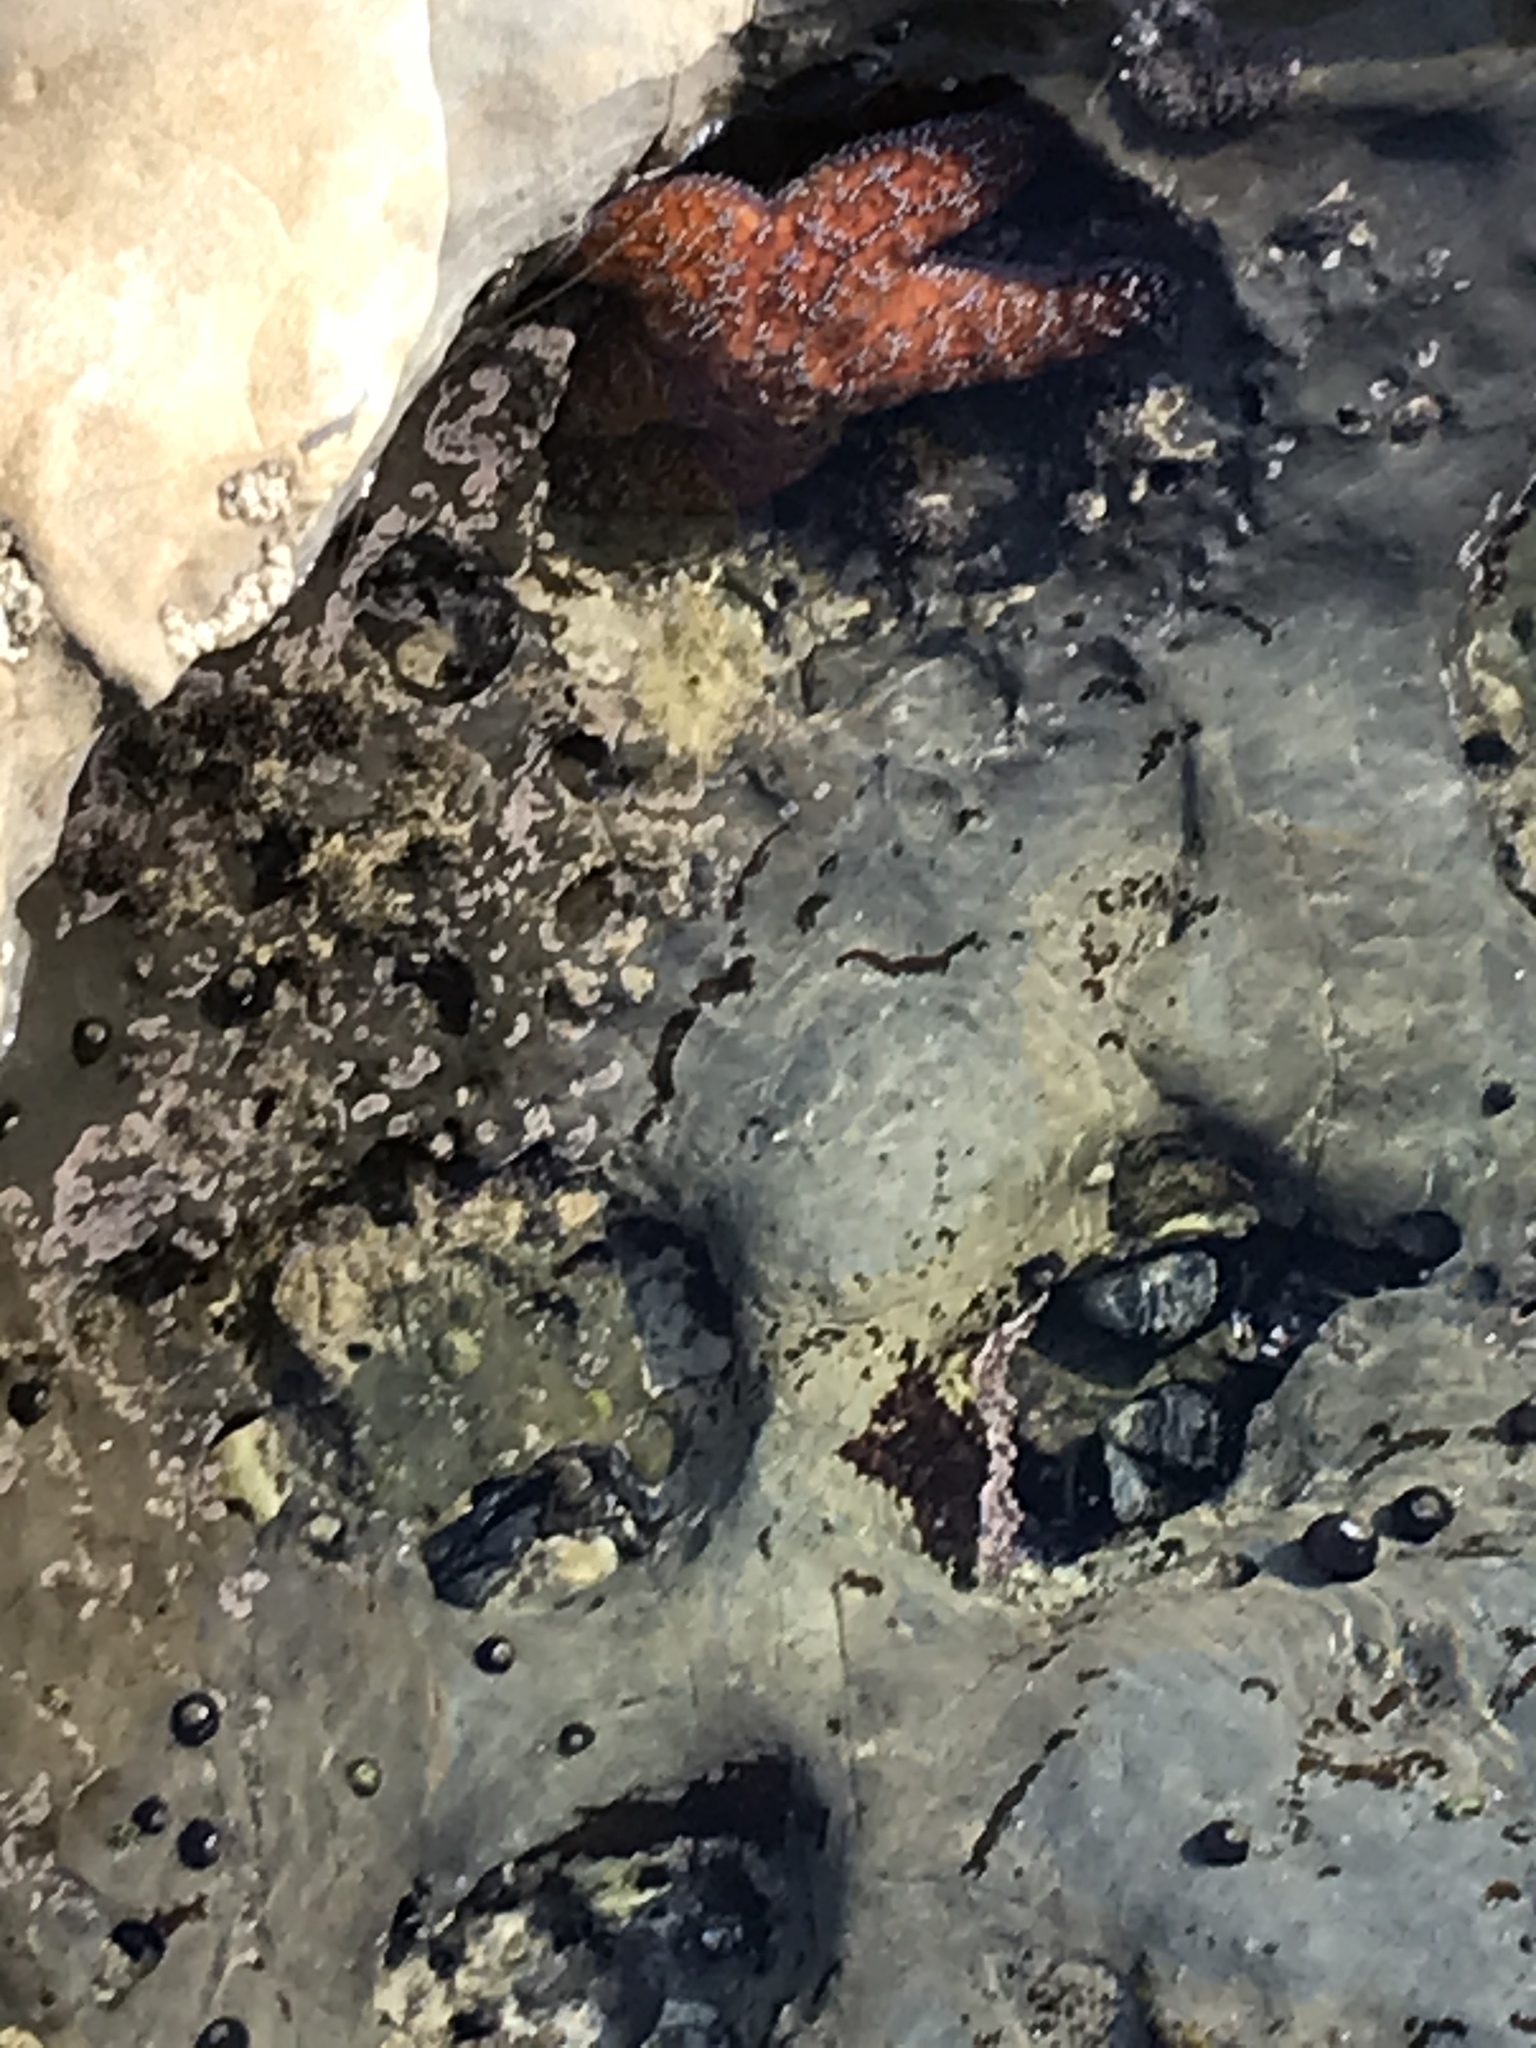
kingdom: Animalia
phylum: Echinodermata
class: Asteroidea
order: Forcipulatida
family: Asteriidae
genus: Pisaster
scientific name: Pisaster ochraceus
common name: Ochre stars
